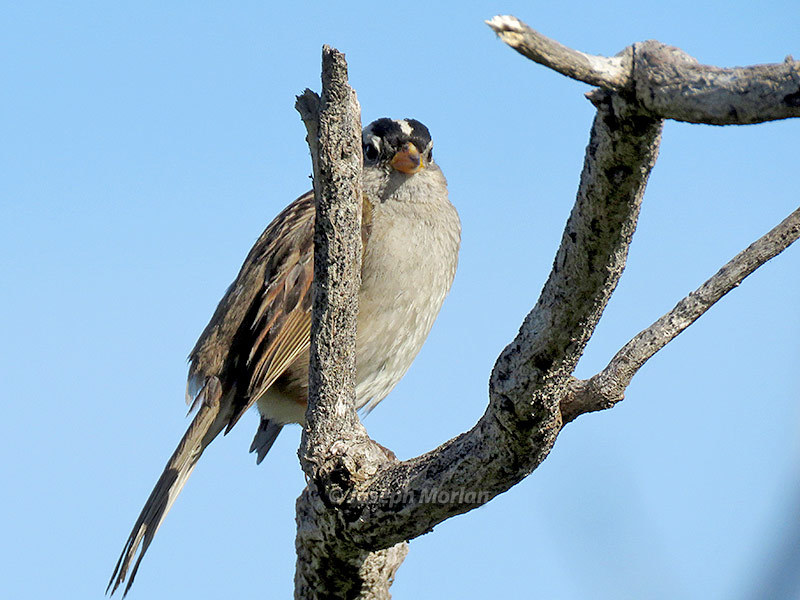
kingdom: Animalia
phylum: Chordata
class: Aves
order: Passeriformes
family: Passerellidae
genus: Zonotrichia
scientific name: Zonotrichia leucophrys
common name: White-crowned sparrow
